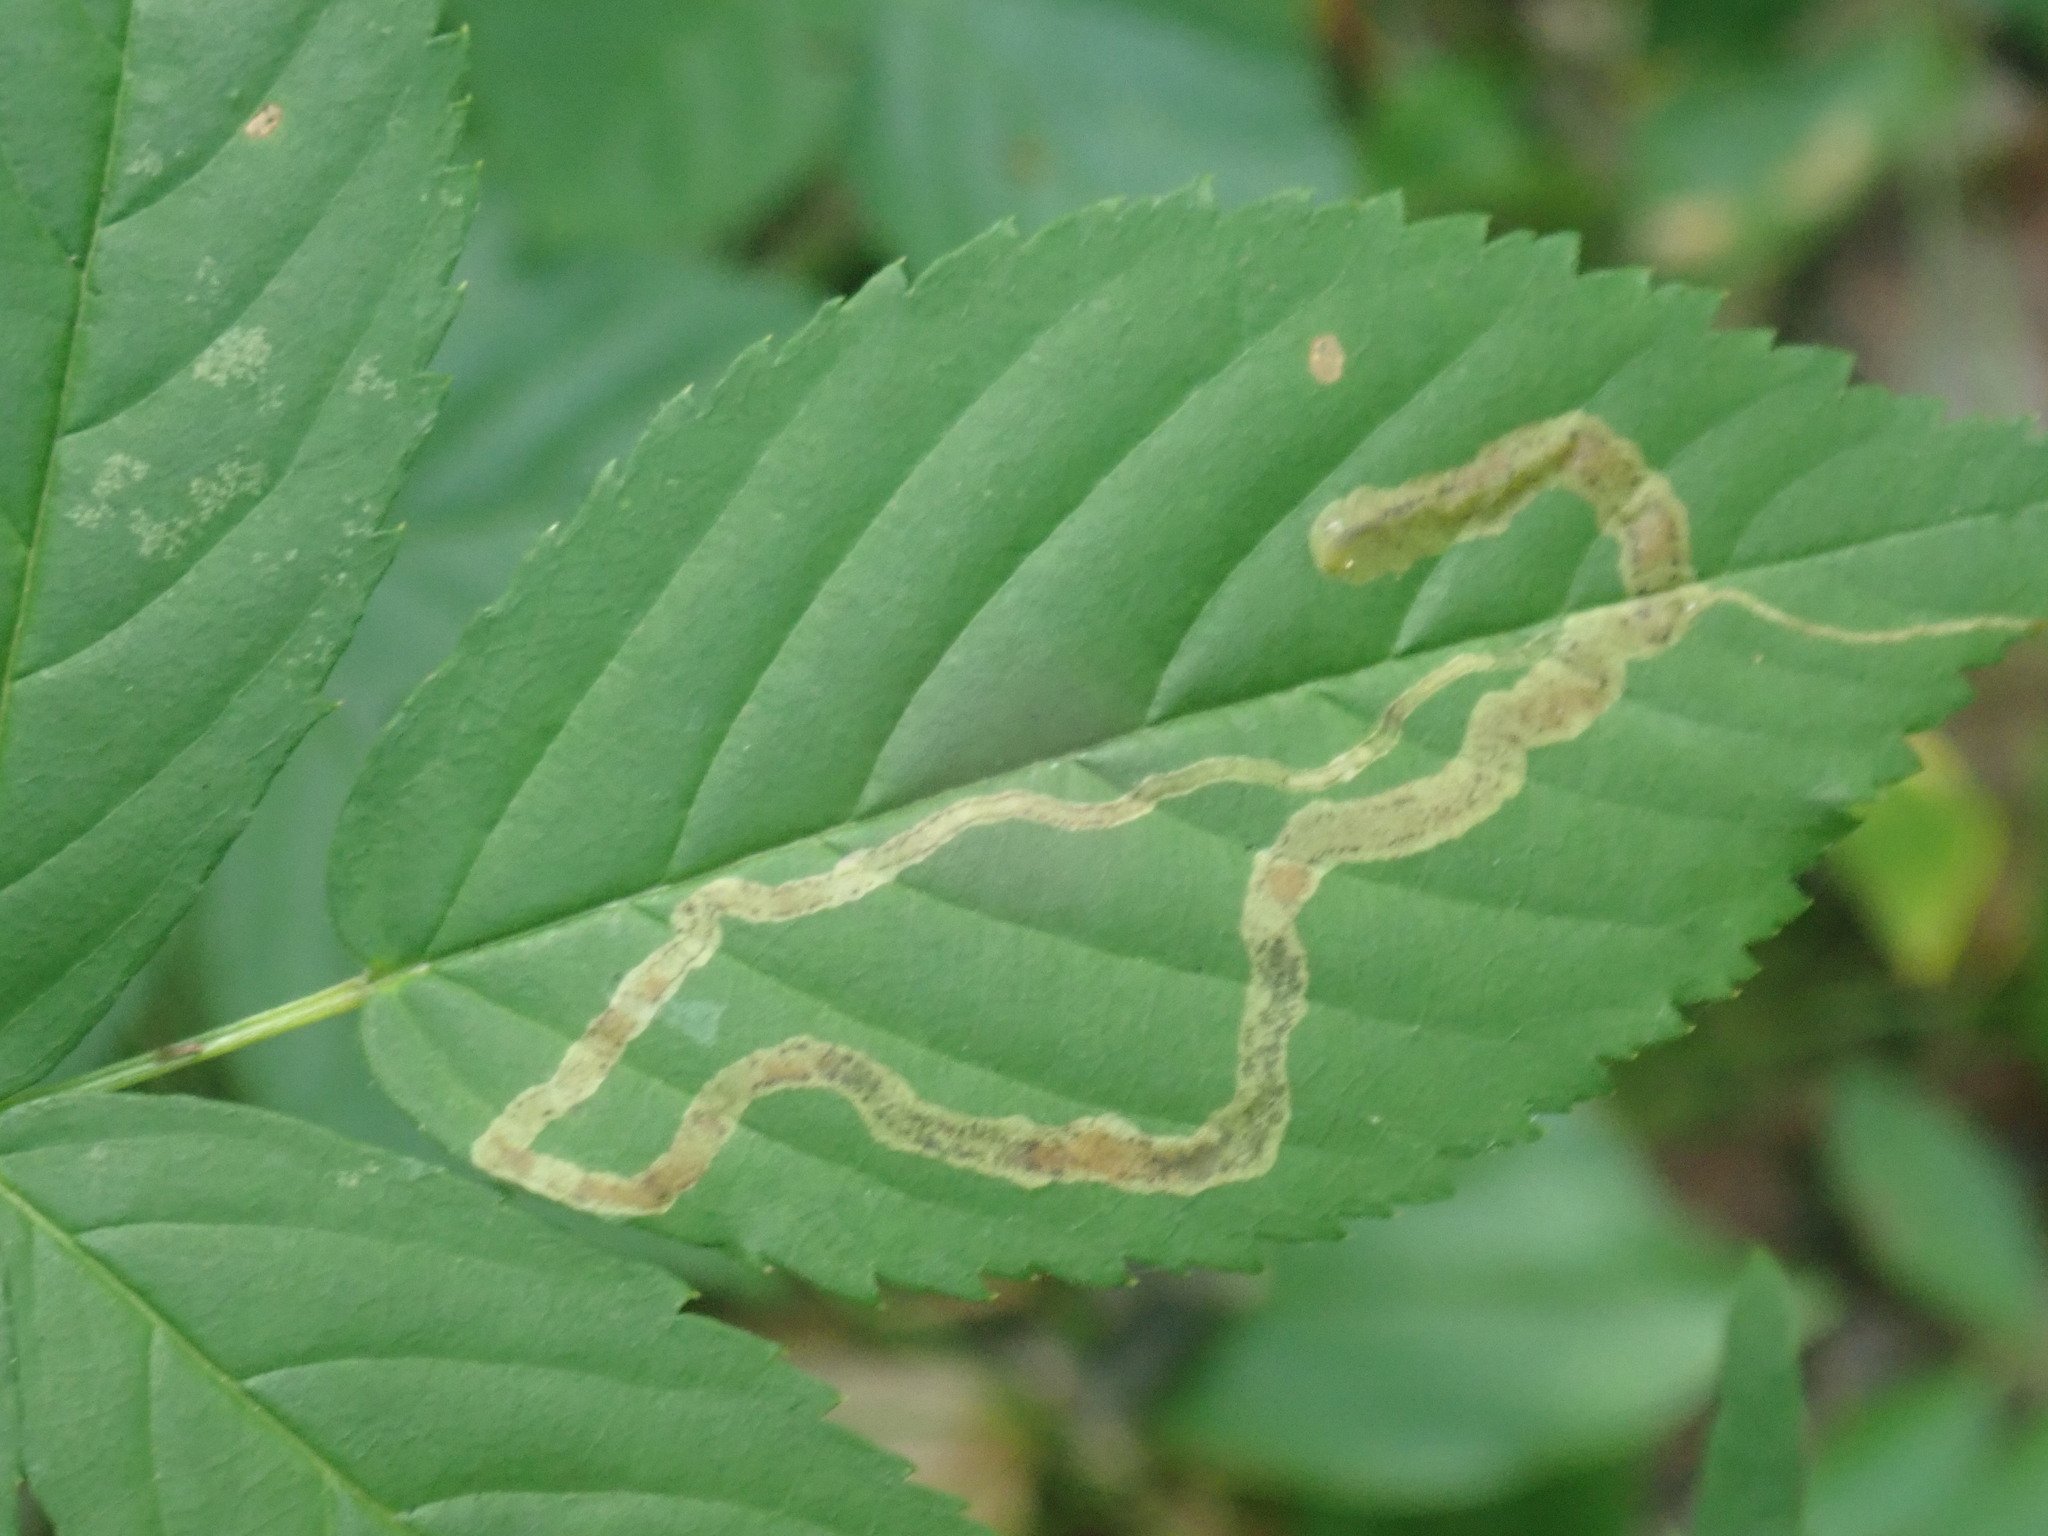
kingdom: Animalia
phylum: Arthropoda
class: Insecta
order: Diptera
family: Agromyzidae
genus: Agromyza
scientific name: Agromyza vockerothi
